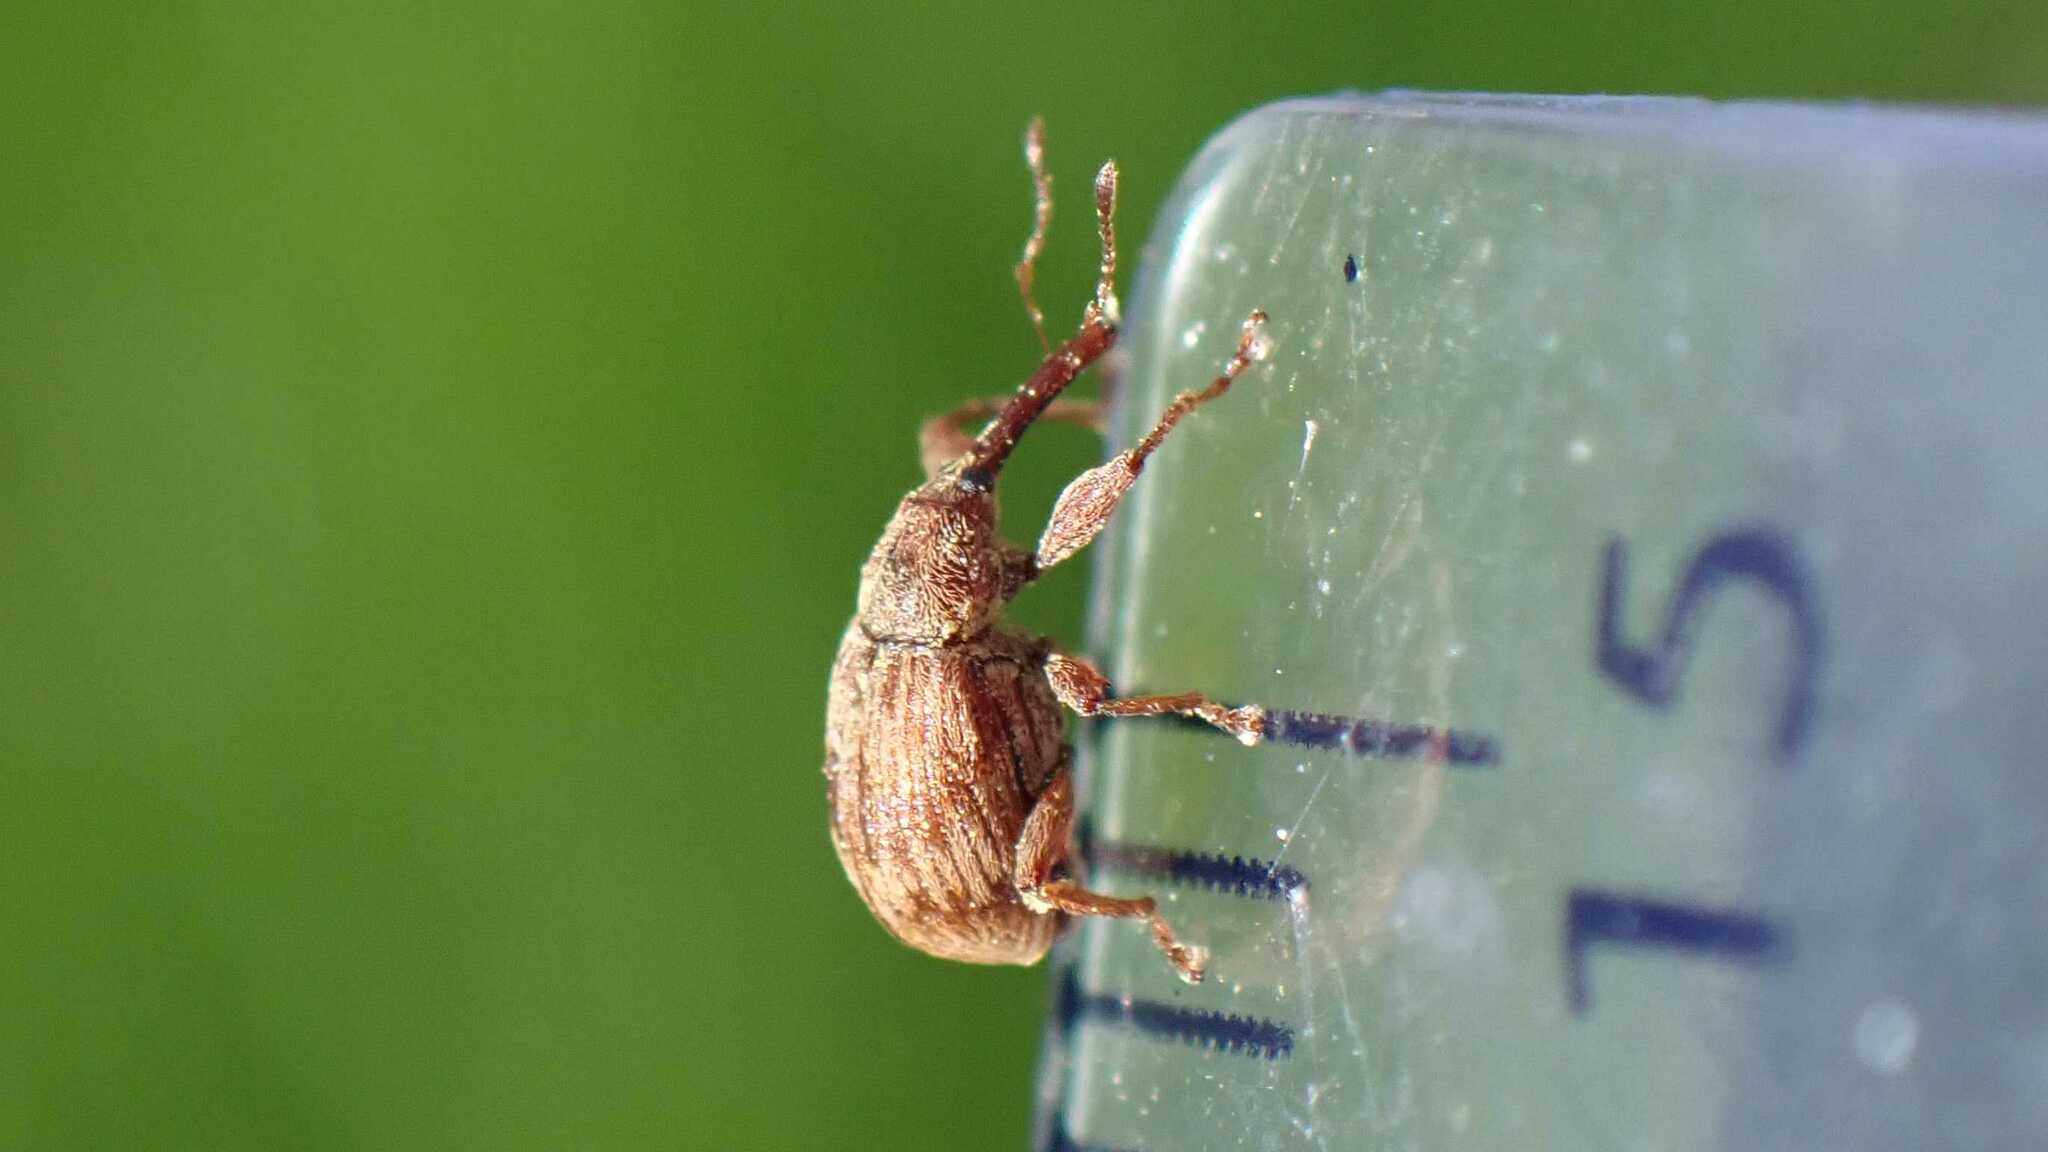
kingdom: Animalia
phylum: Arthropoda
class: Insecta
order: Coleoptera
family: Curculionidae
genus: Anthonomus
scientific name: Anthonomus rectirostris
